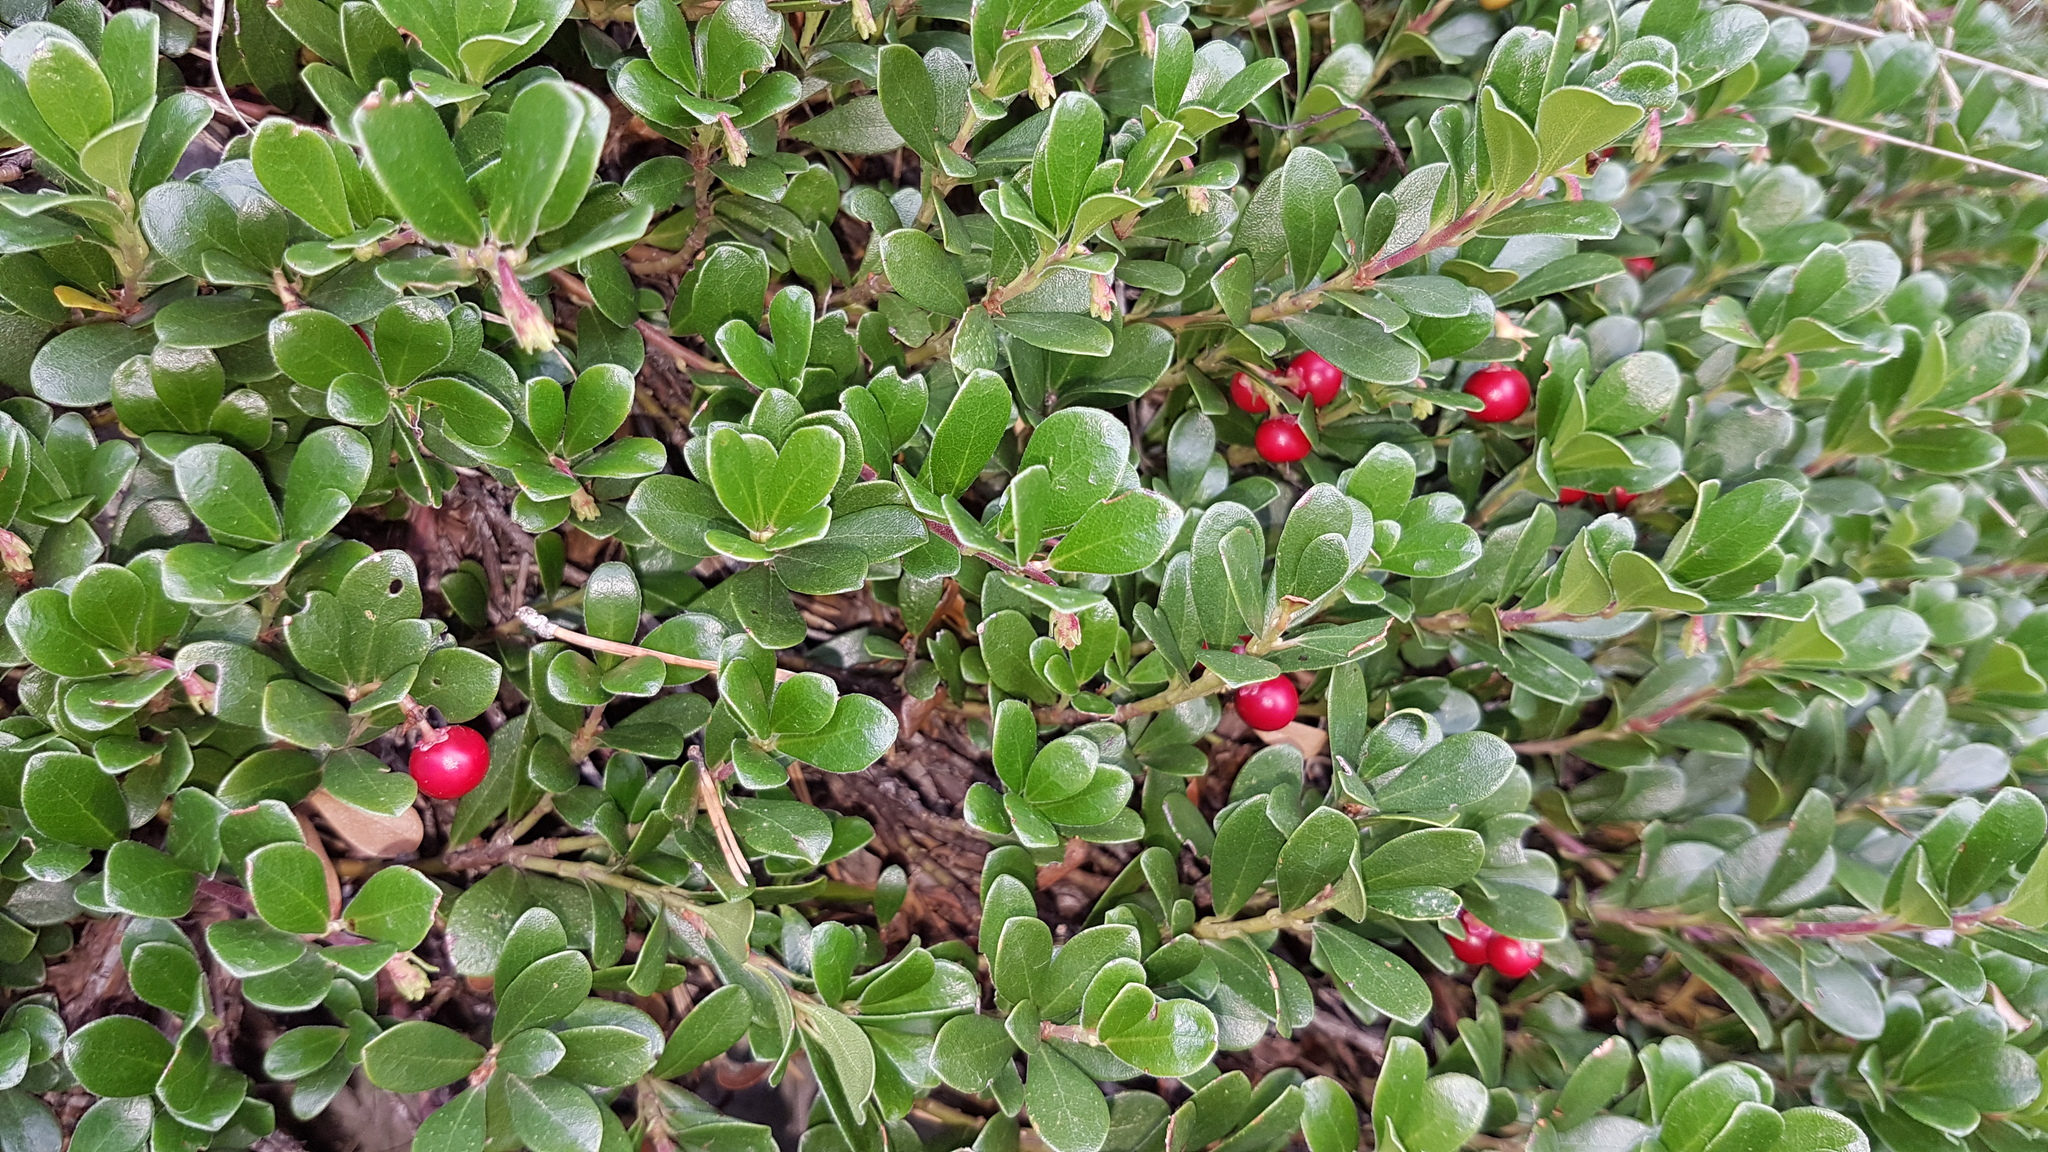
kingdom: Plantae
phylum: Tracheophyta
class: Magnoliopsida
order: Ericales
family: Ericaceae
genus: Arctostaphylos
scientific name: Arctostaphylos uva-ursi
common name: Bearberry
